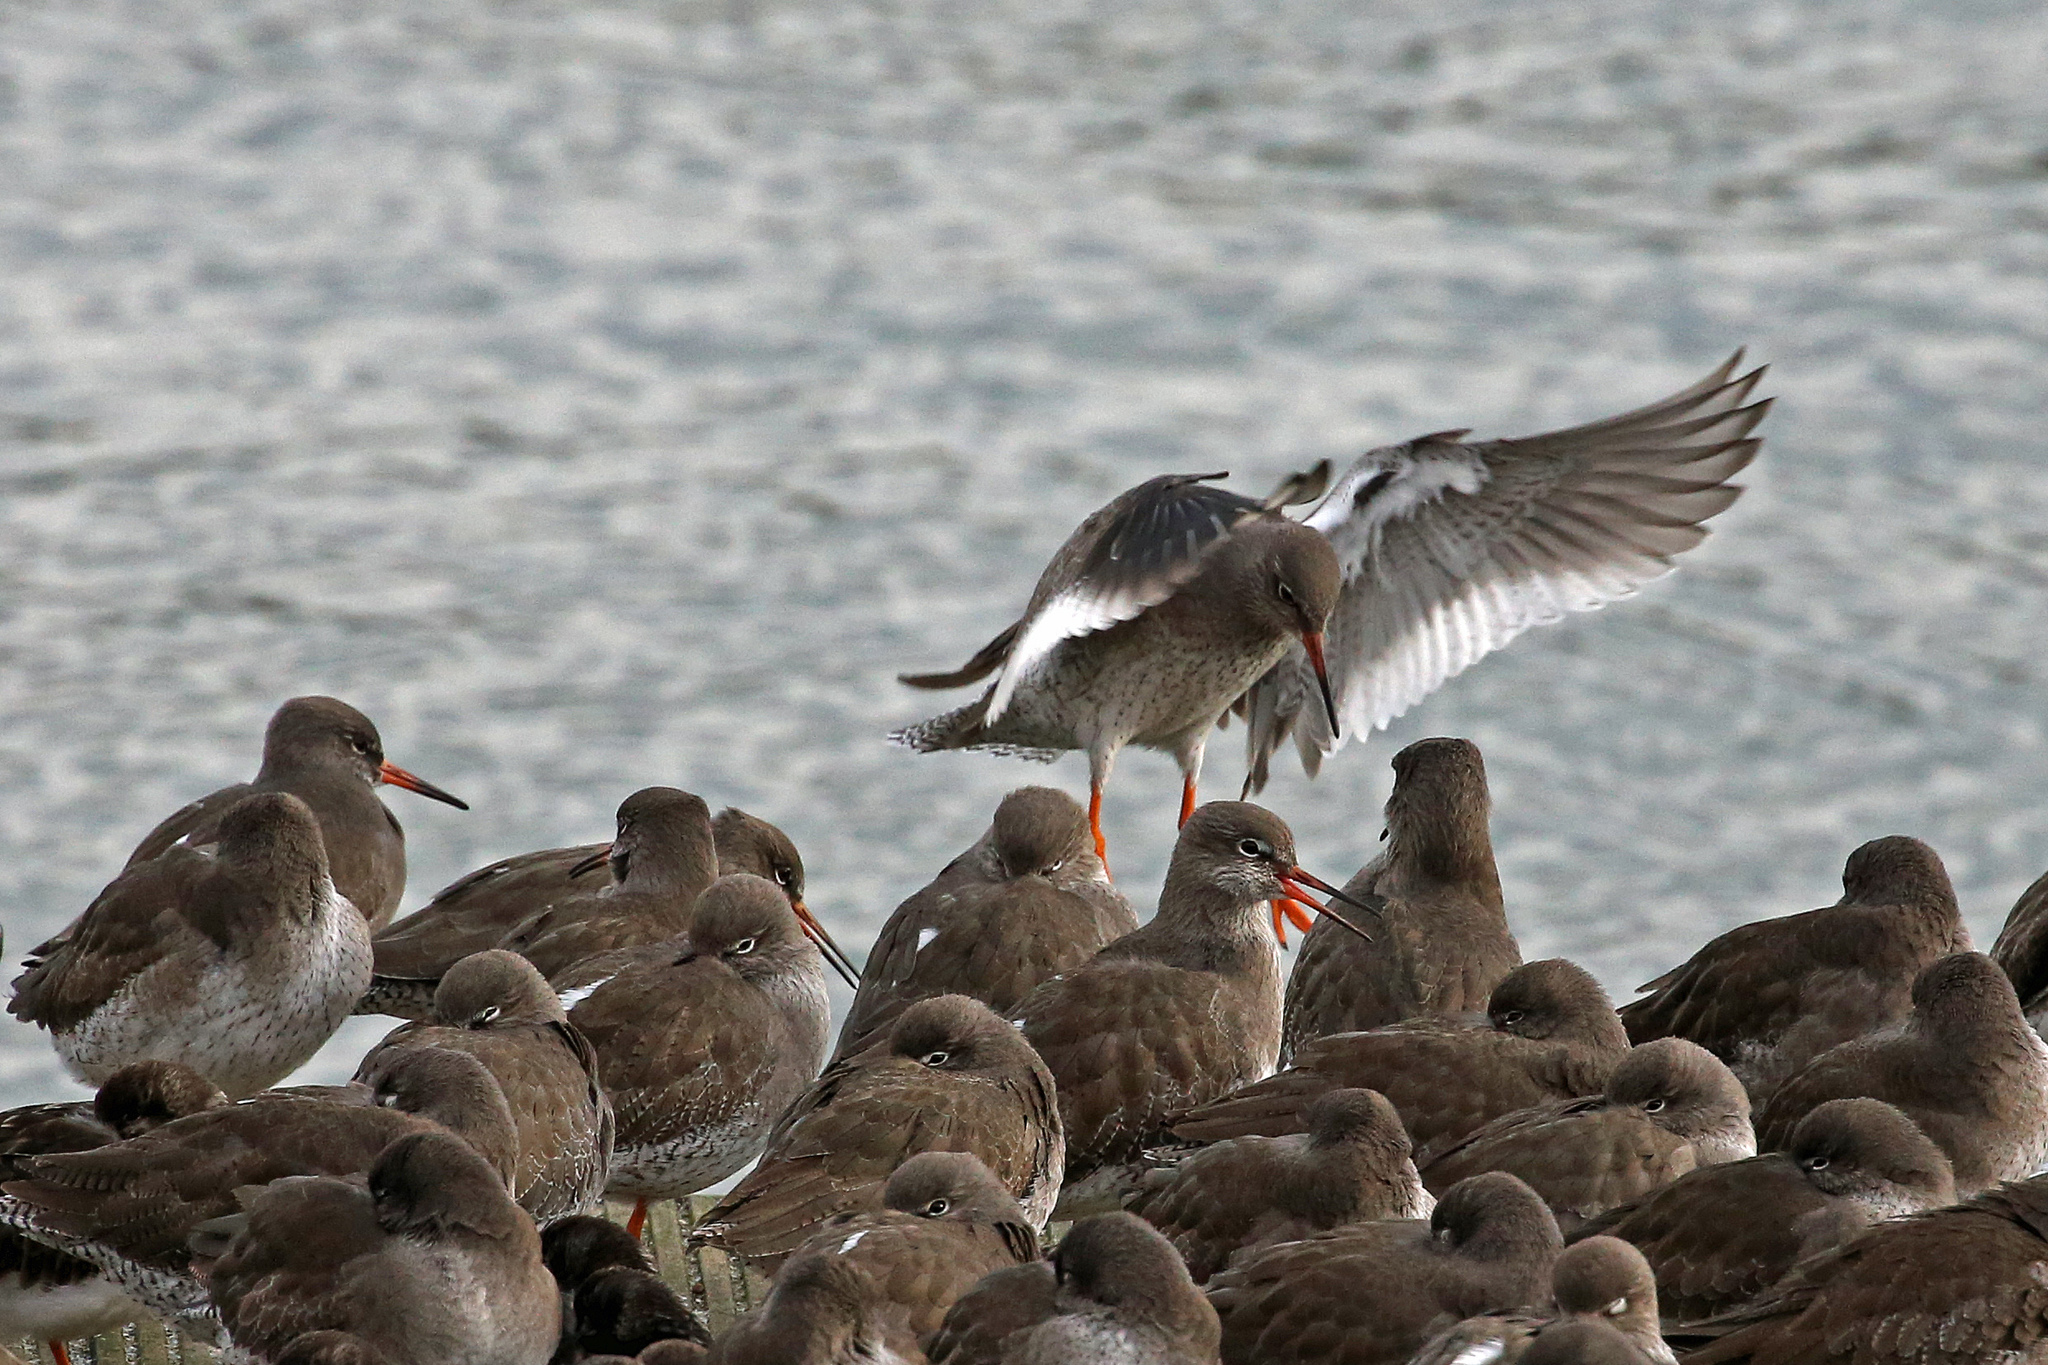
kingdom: Animalia
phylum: Chordata
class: Aves
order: Charadriiformes
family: Scolopacidae
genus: Tringa
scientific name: Tringa totanus
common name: Common redshank
